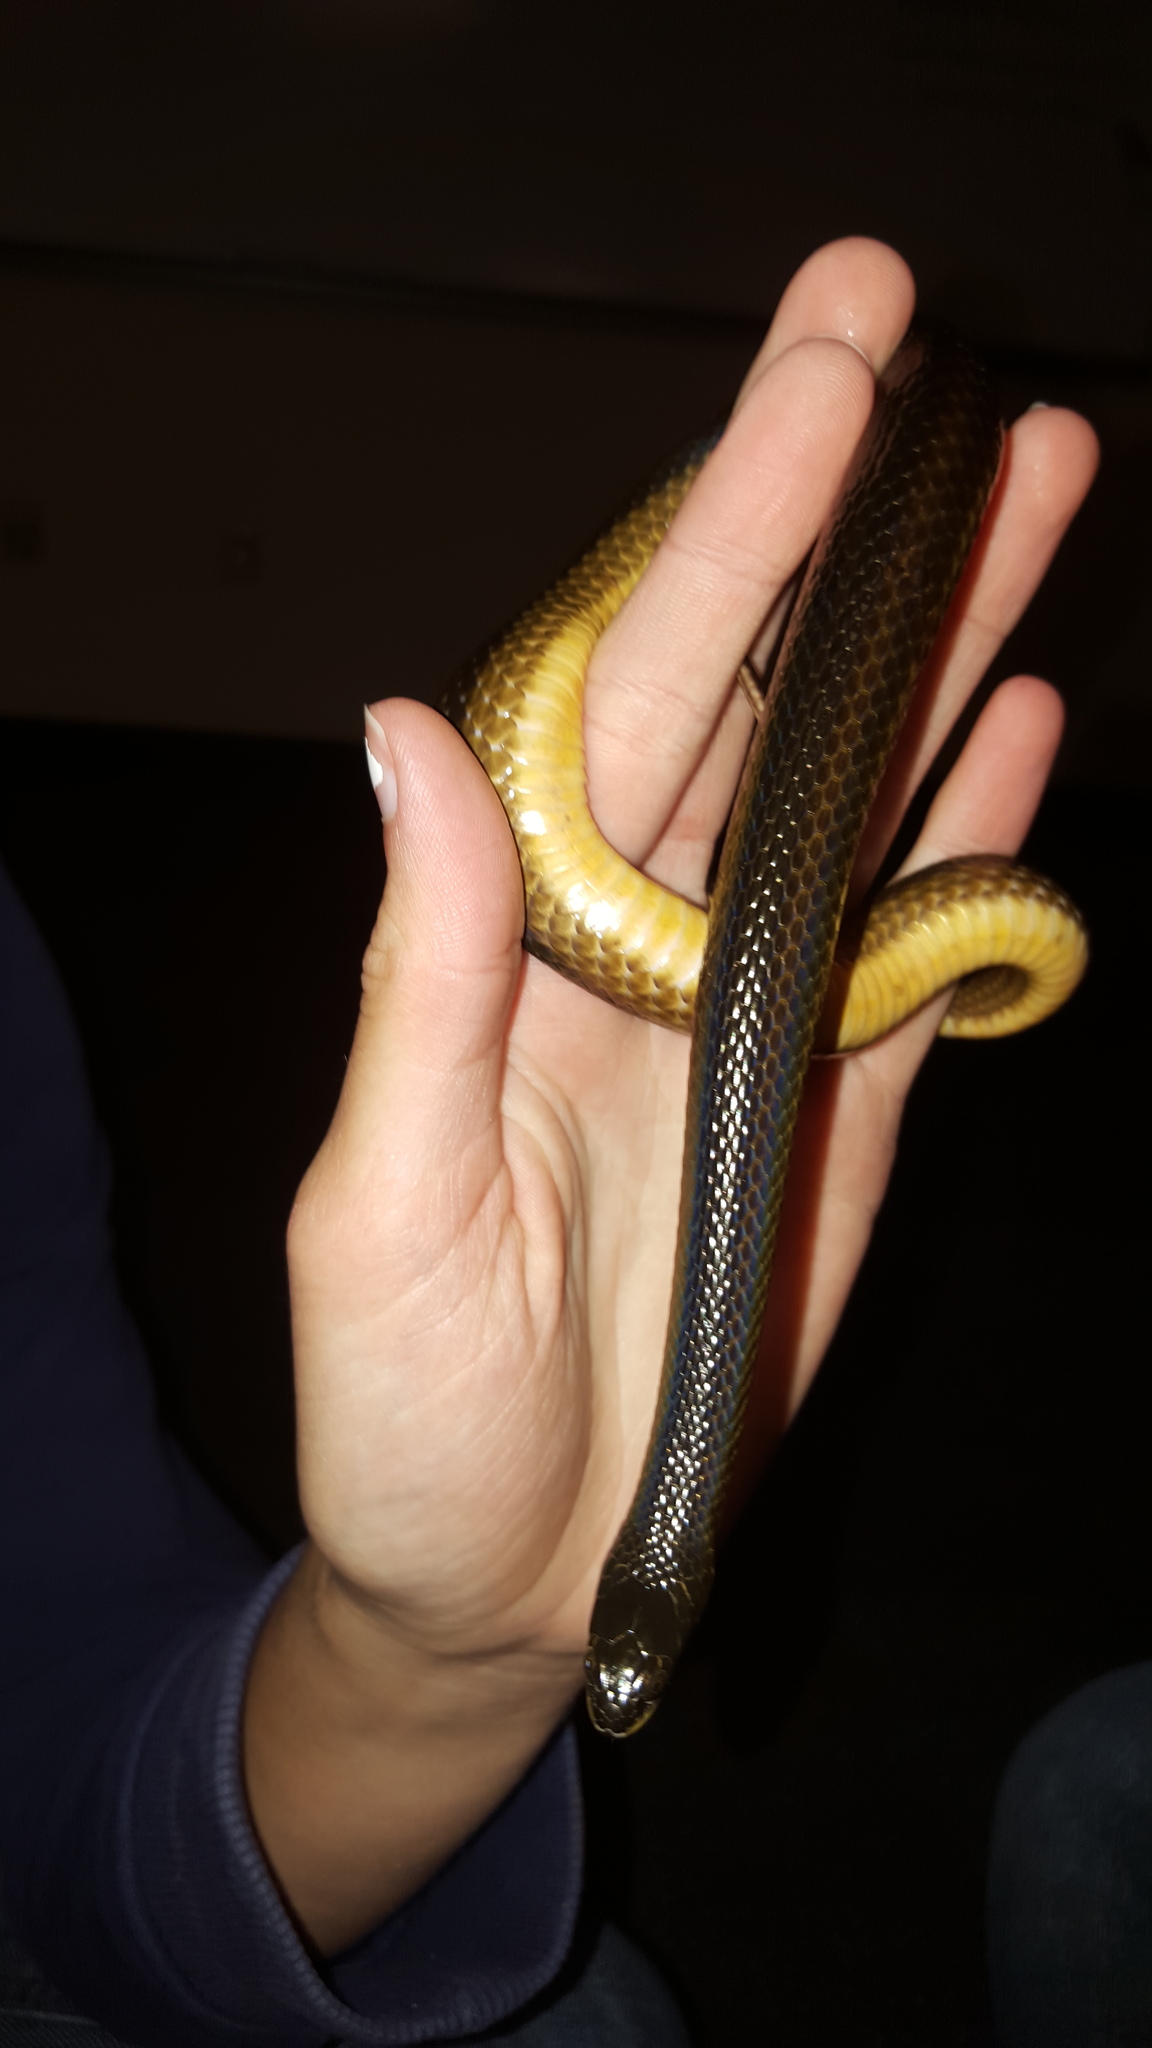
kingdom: Animalia
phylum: Chordata
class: Squamata
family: Colubridae
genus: Liodytes
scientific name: Liodytes alleni
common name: Striped crayfish snake
